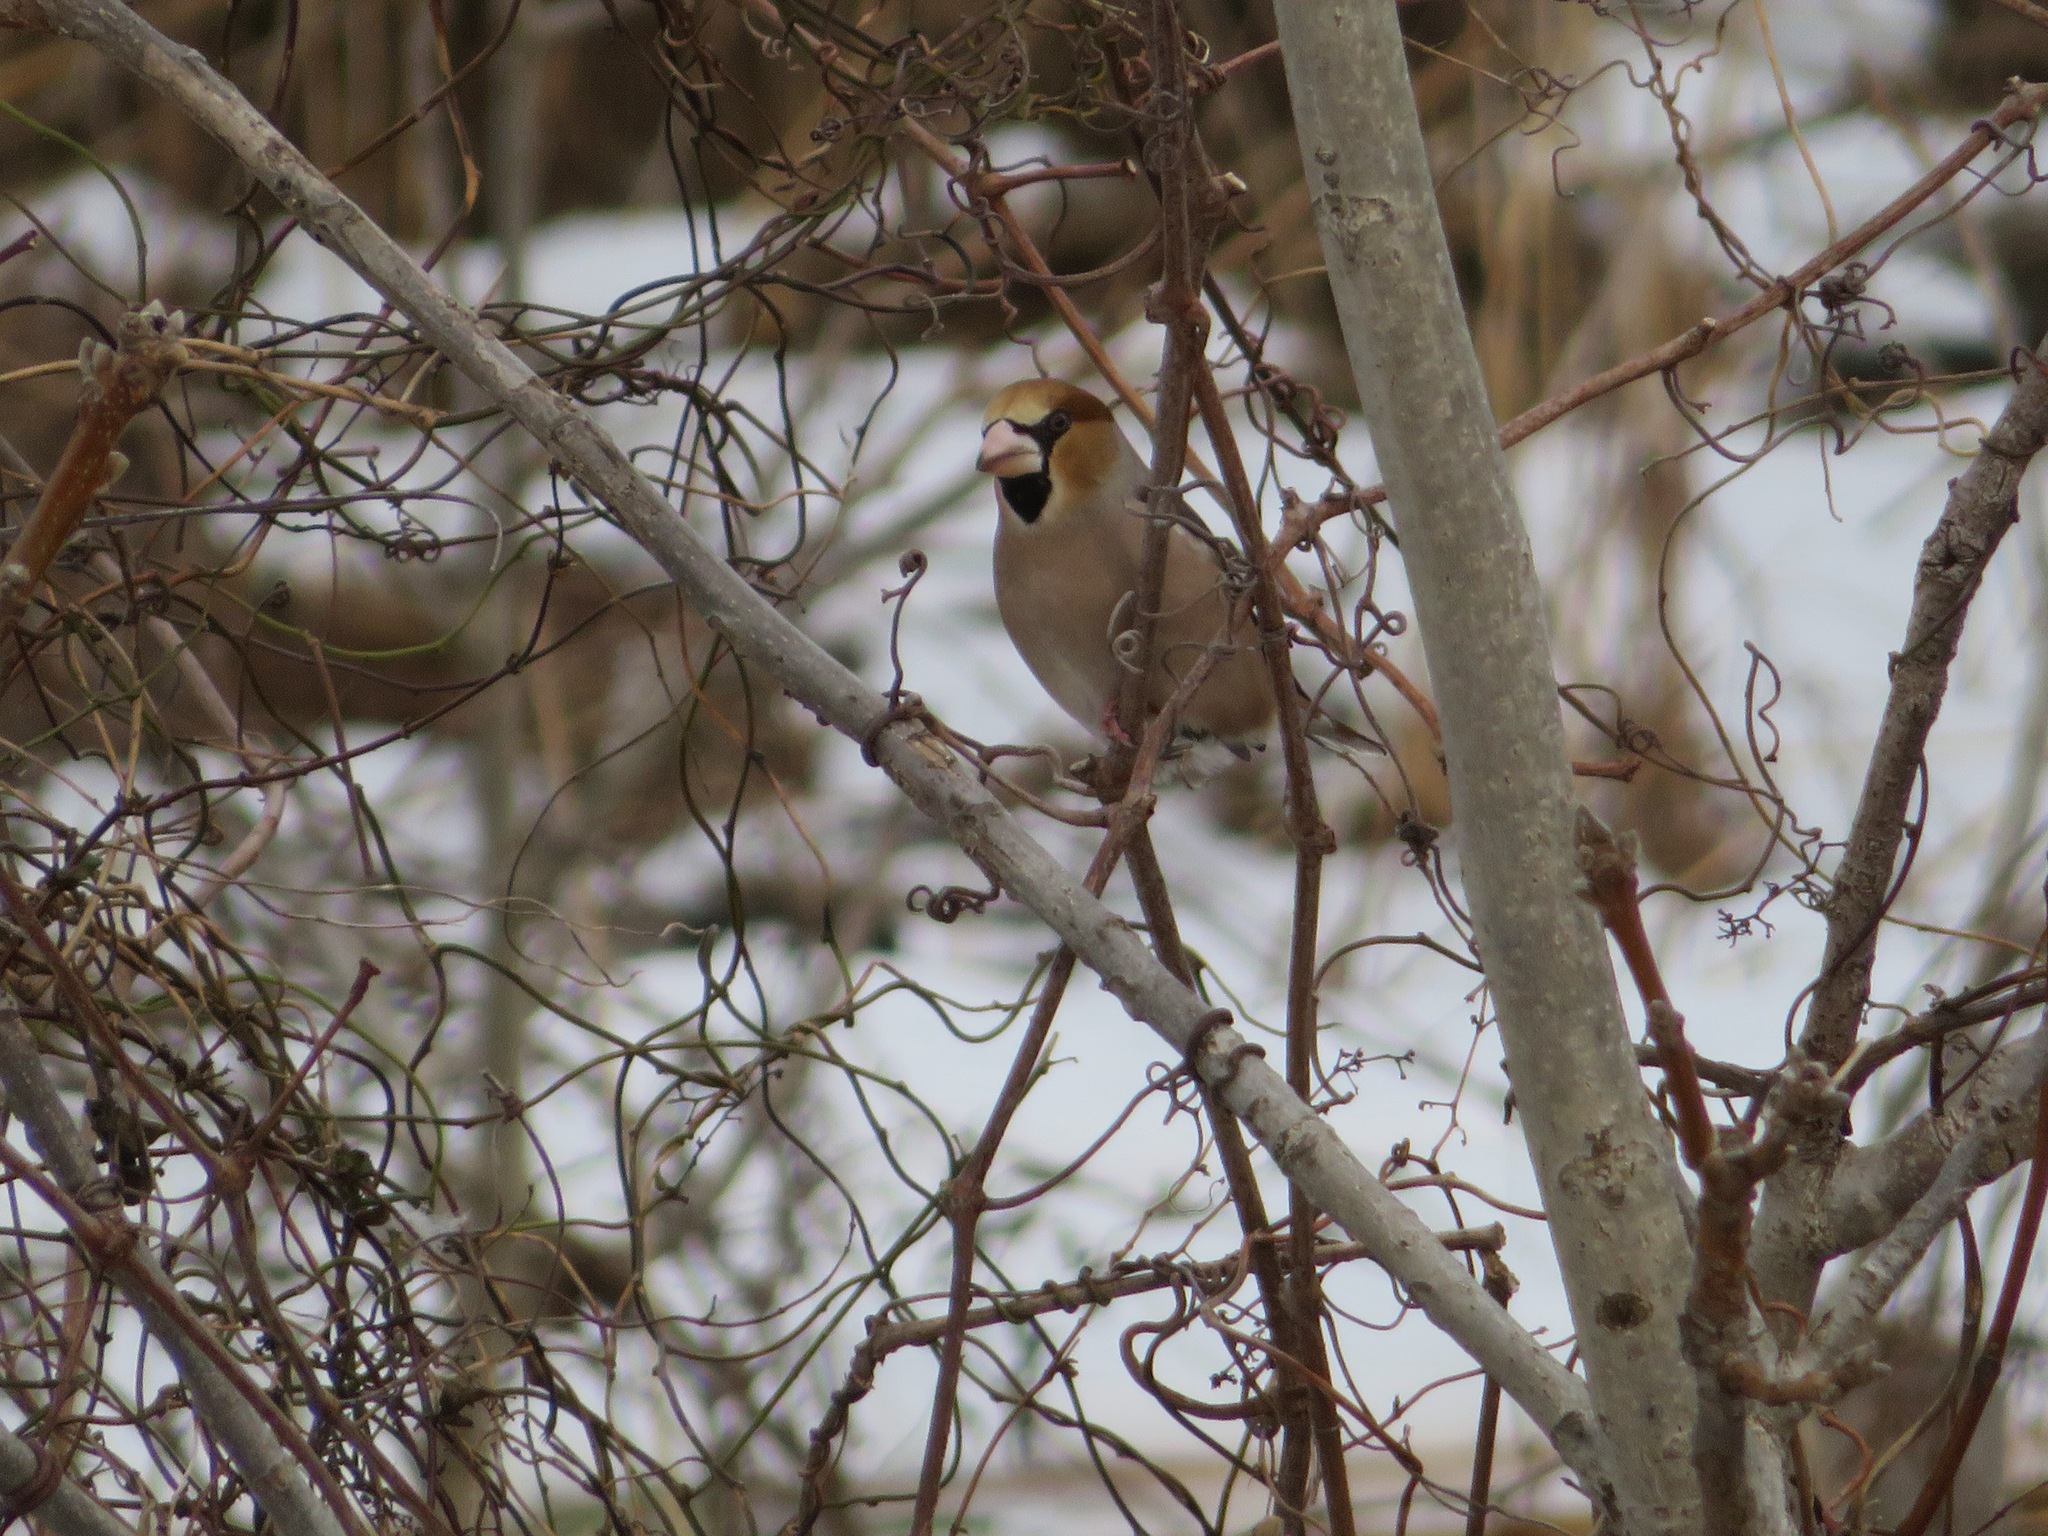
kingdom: Animalia
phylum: Chordata
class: Aves
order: Passeriformes
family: Fringillidae
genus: Coccothraustes
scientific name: Coccothraustes coccothraustes
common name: Hawfinch
